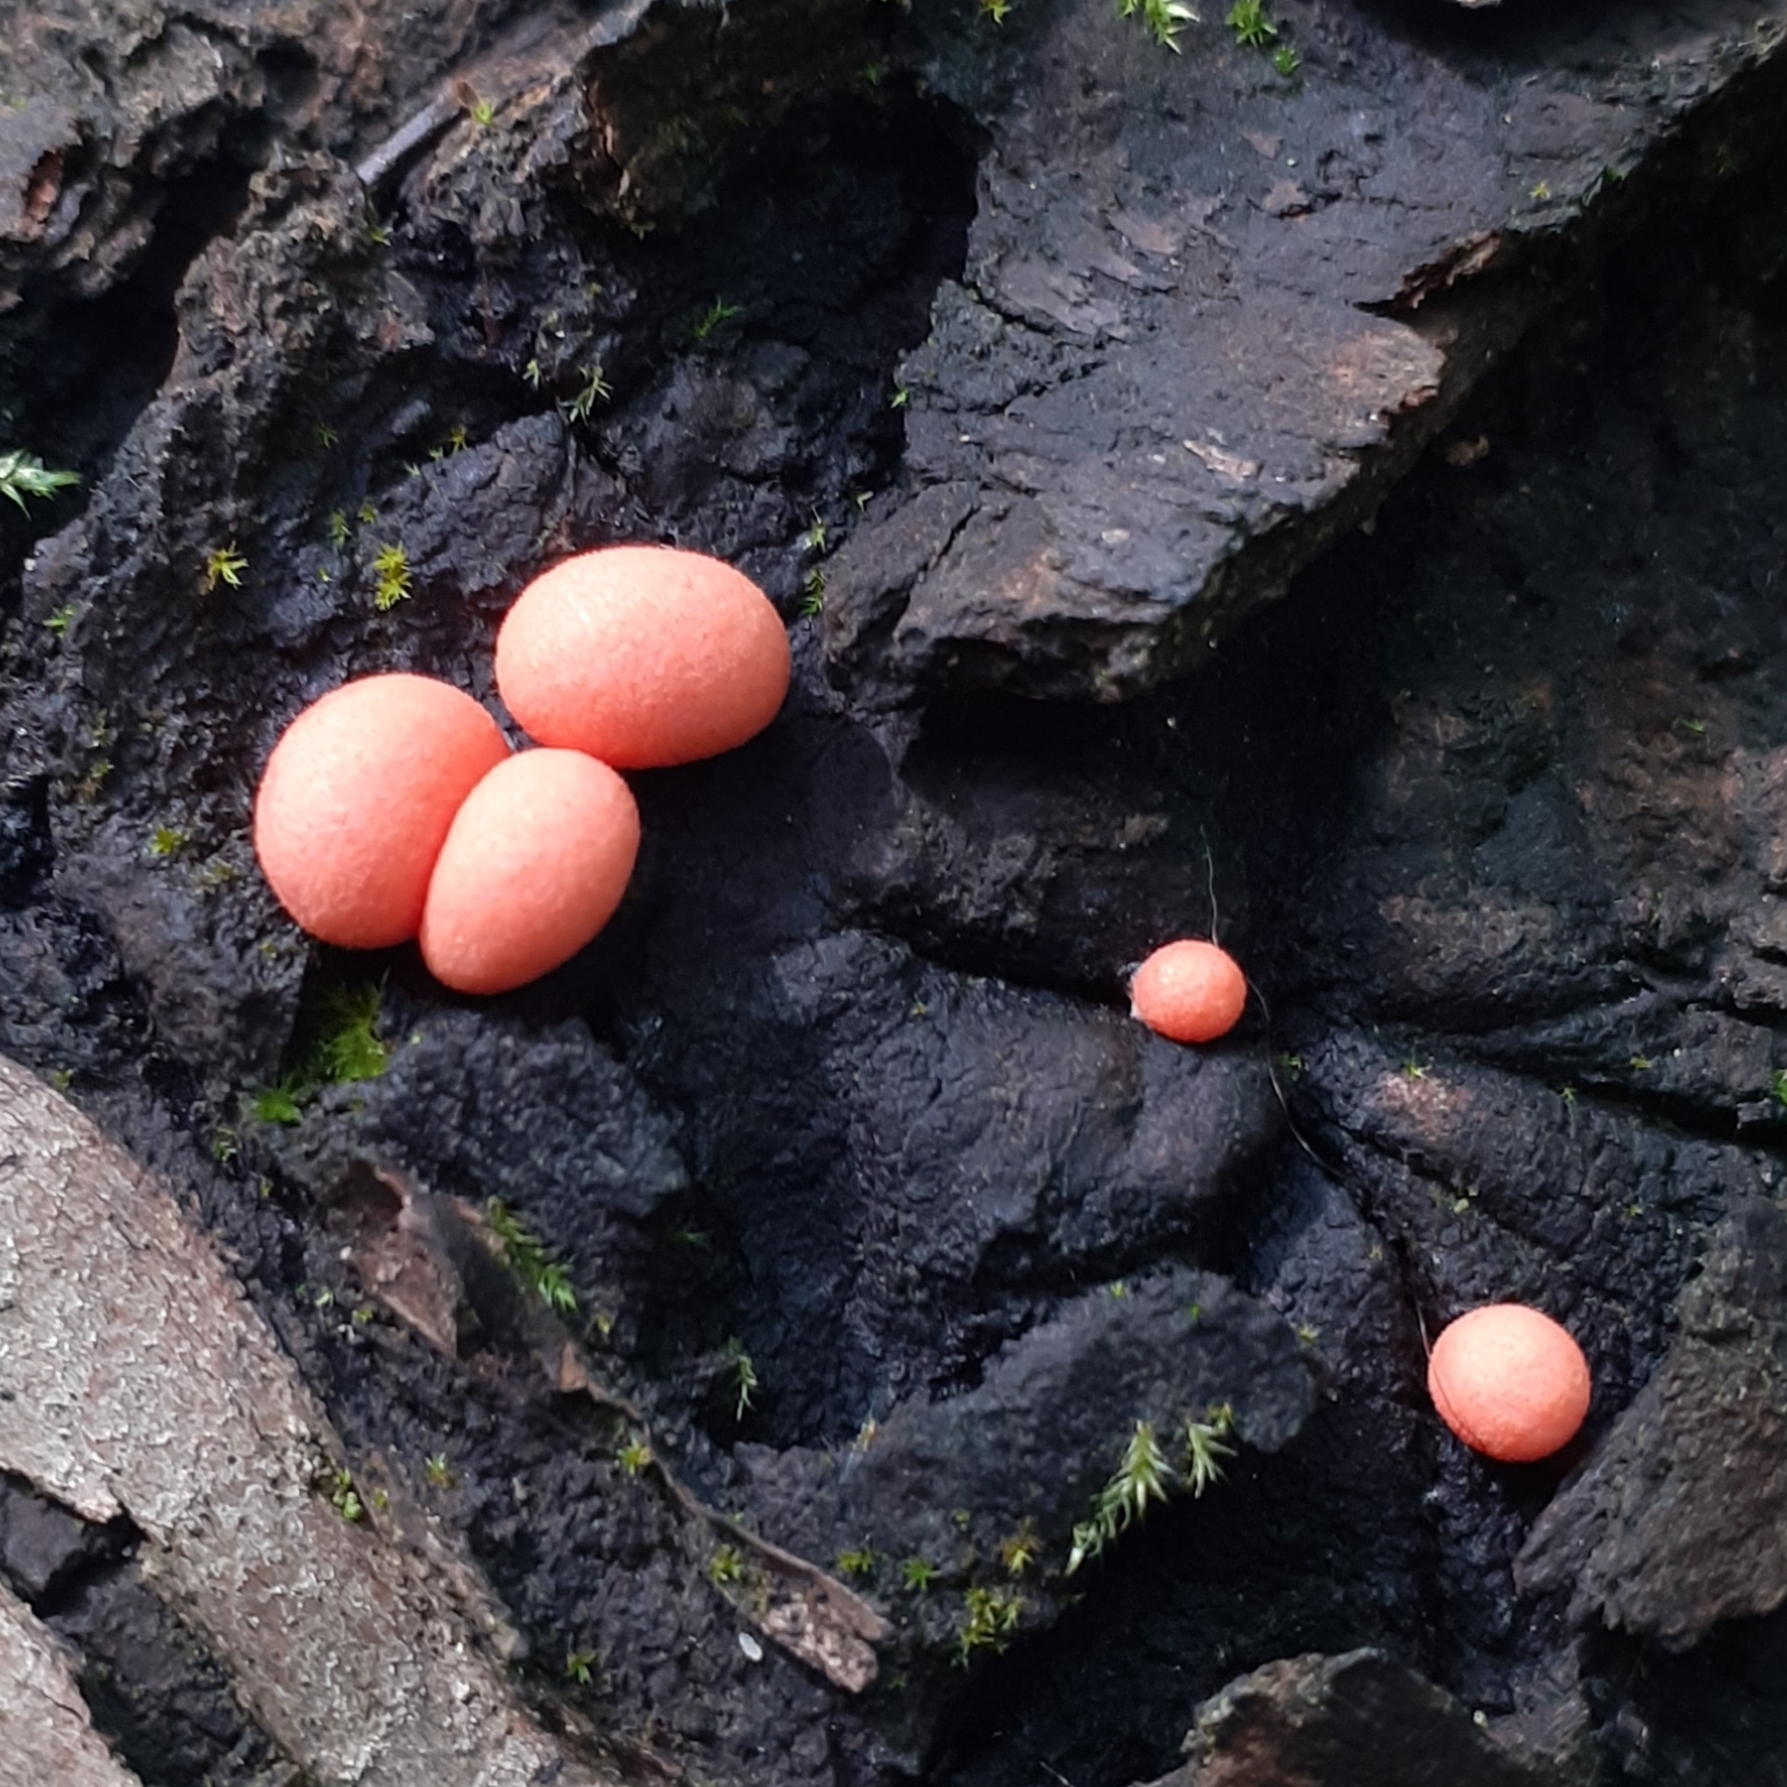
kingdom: Protozoa
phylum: Mycetozoa
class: Myxomycetes
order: Cribrariales
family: Tubiferaceae
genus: Lycogala
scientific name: Lycogala epidendrum
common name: Wolf's milk
